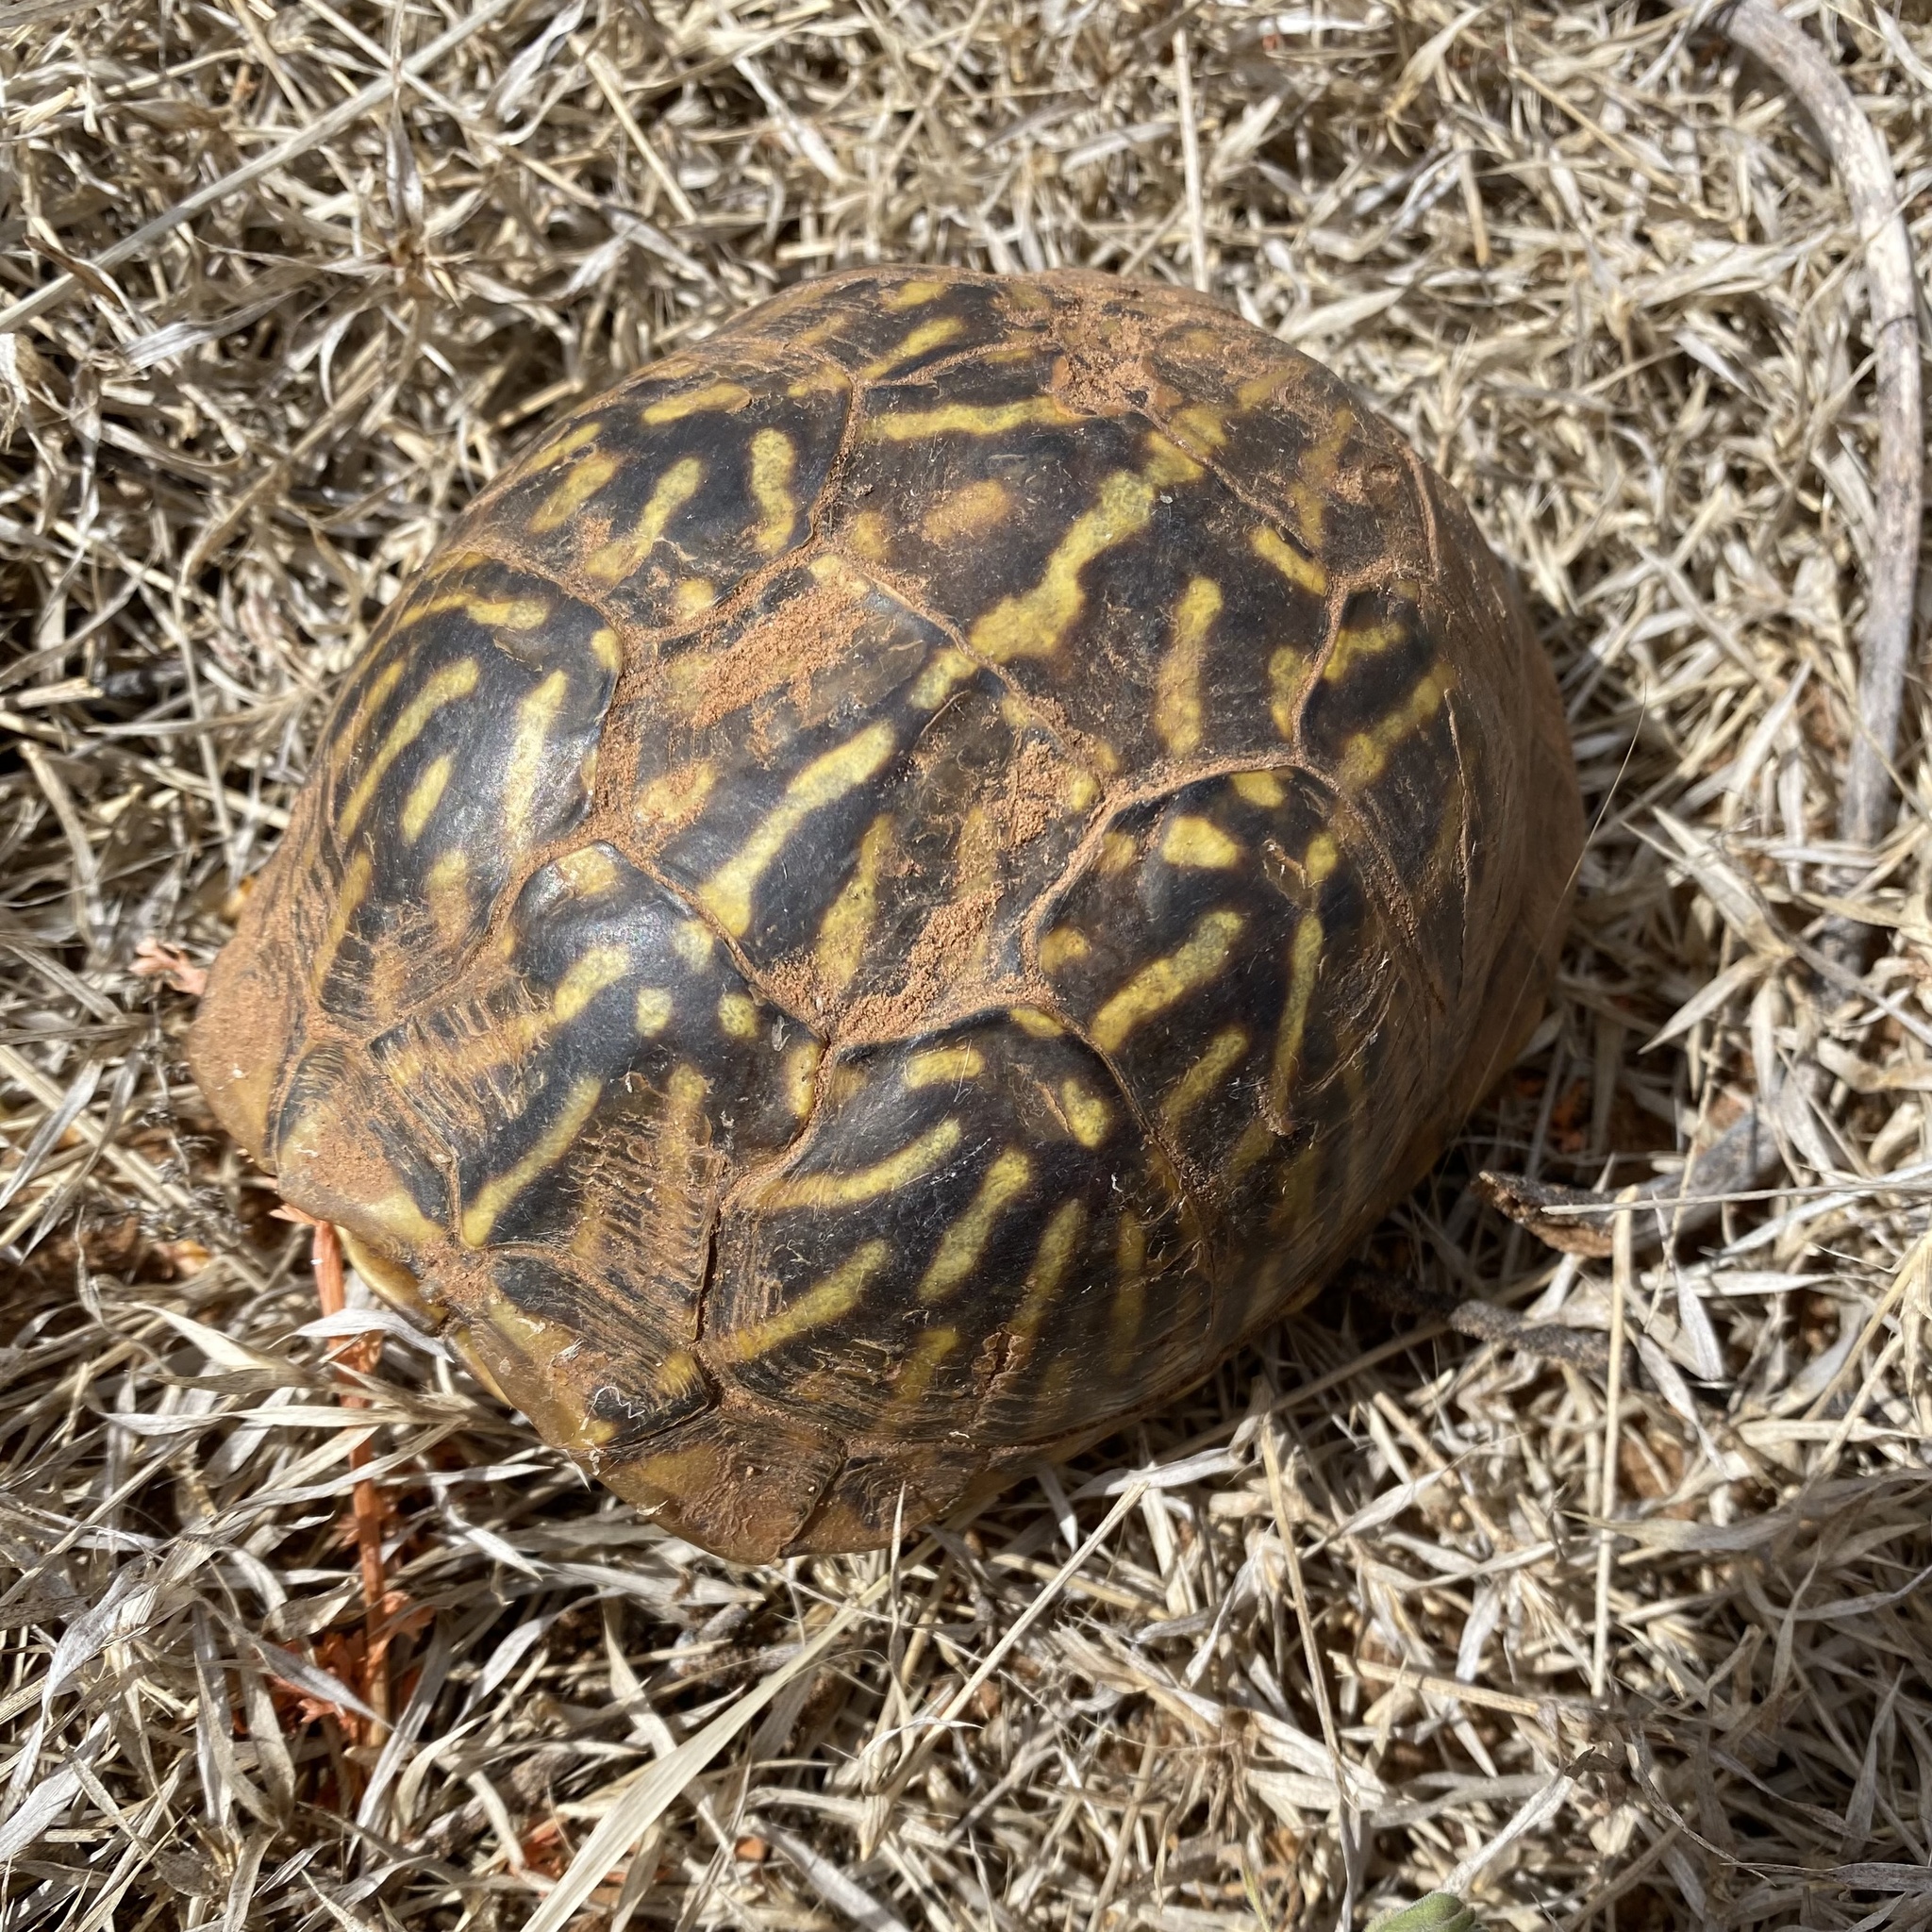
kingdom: Animalia
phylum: Chordata
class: Testudines
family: Emydidae
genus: Terrapene
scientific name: Terrapene ornata
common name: Western box turtle
